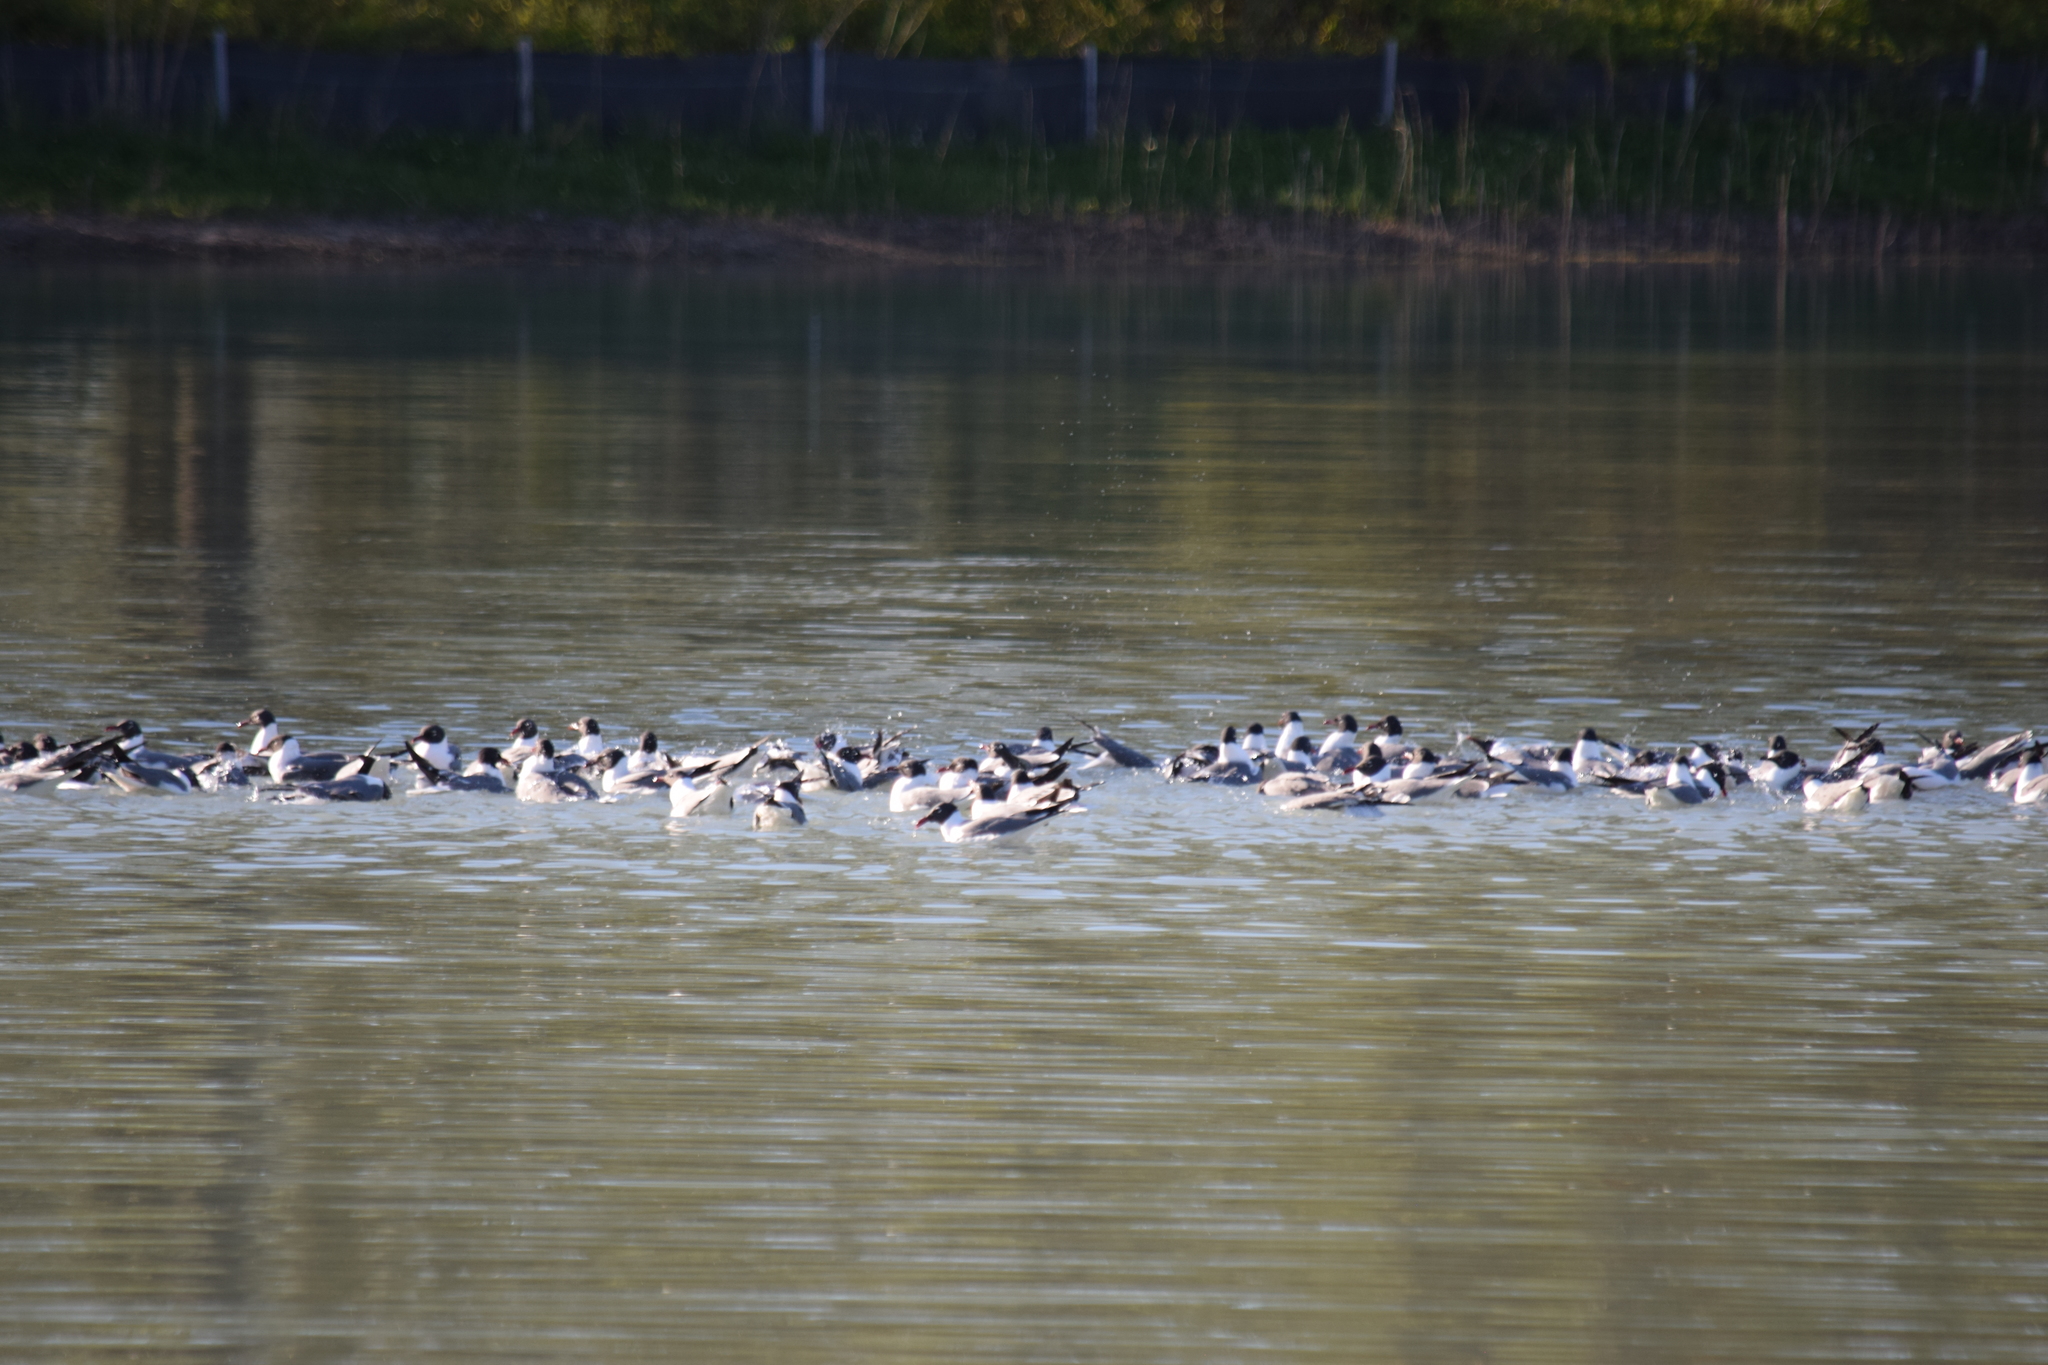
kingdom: Animalia
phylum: Chordata
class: Aves
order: Charadriiformes
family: Laridae
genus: Leucophaeus
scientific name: Leucophaeus atricilla
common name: Laughing gull
